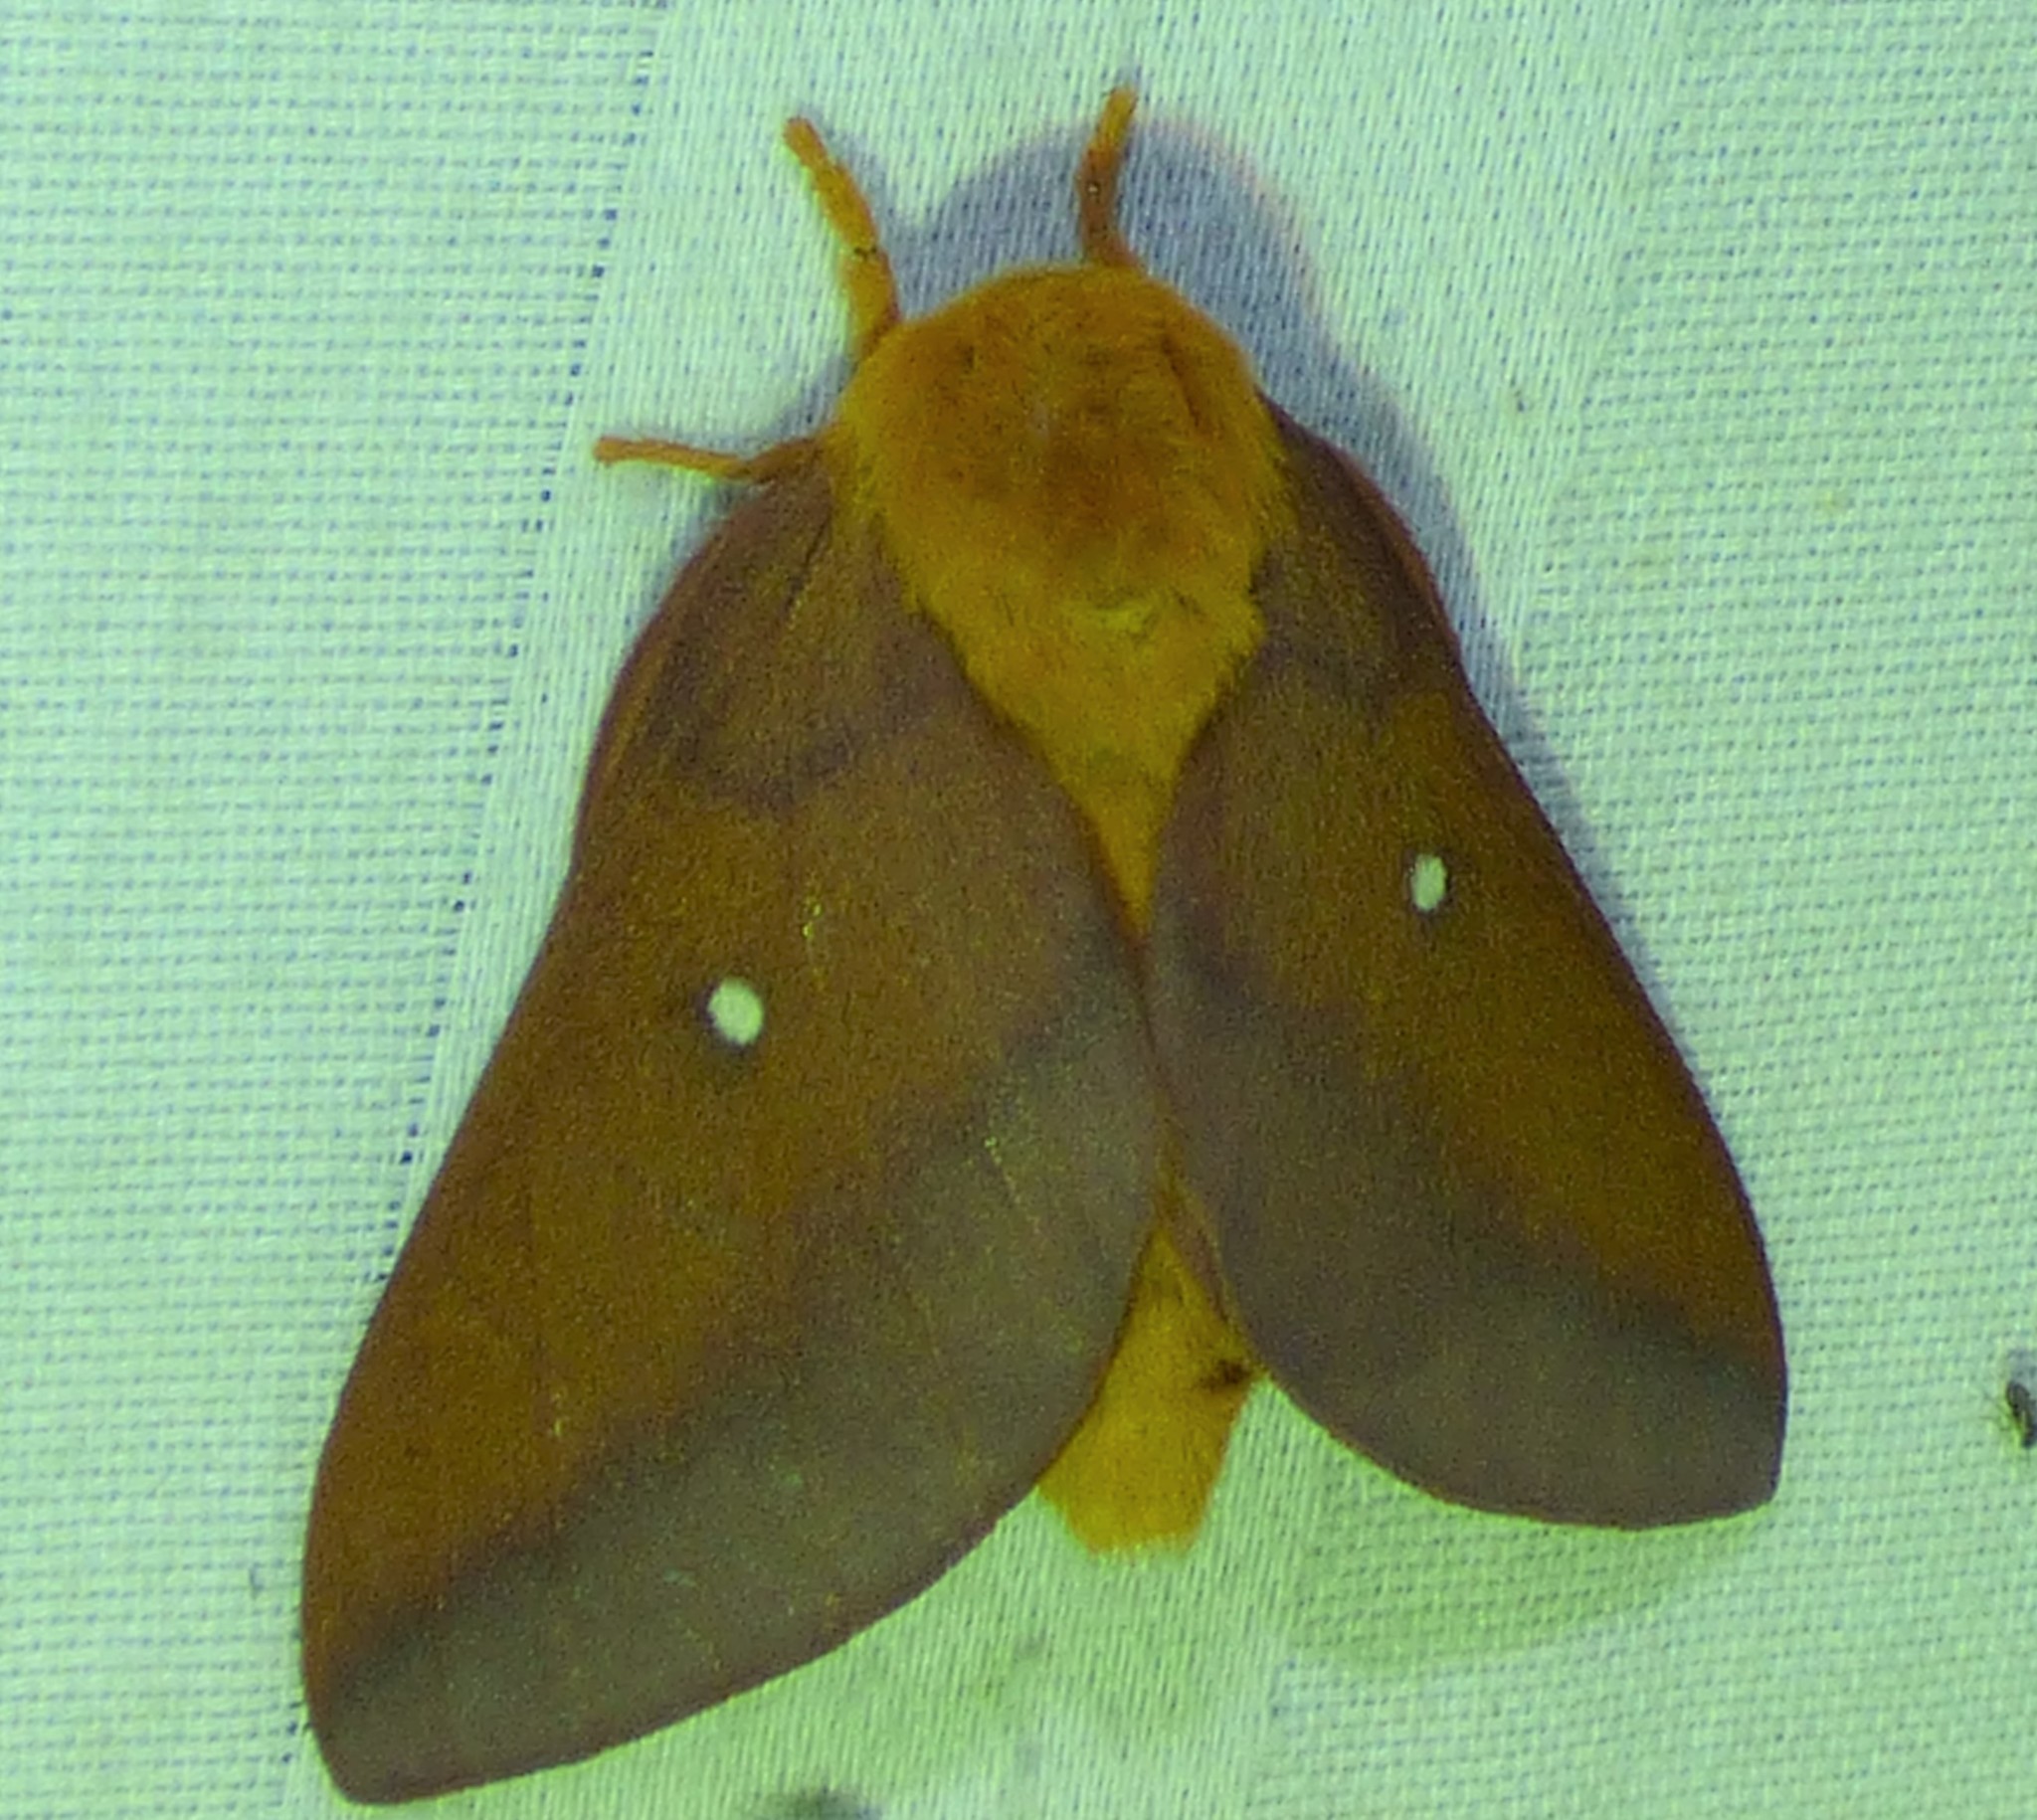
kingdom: Animalia
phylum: Arthropoda
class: Insecta
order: Lepidoptera
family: Saturniidae
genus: Anisota
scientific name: Anisota virginiensis
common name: Pink striped oakworm moth
